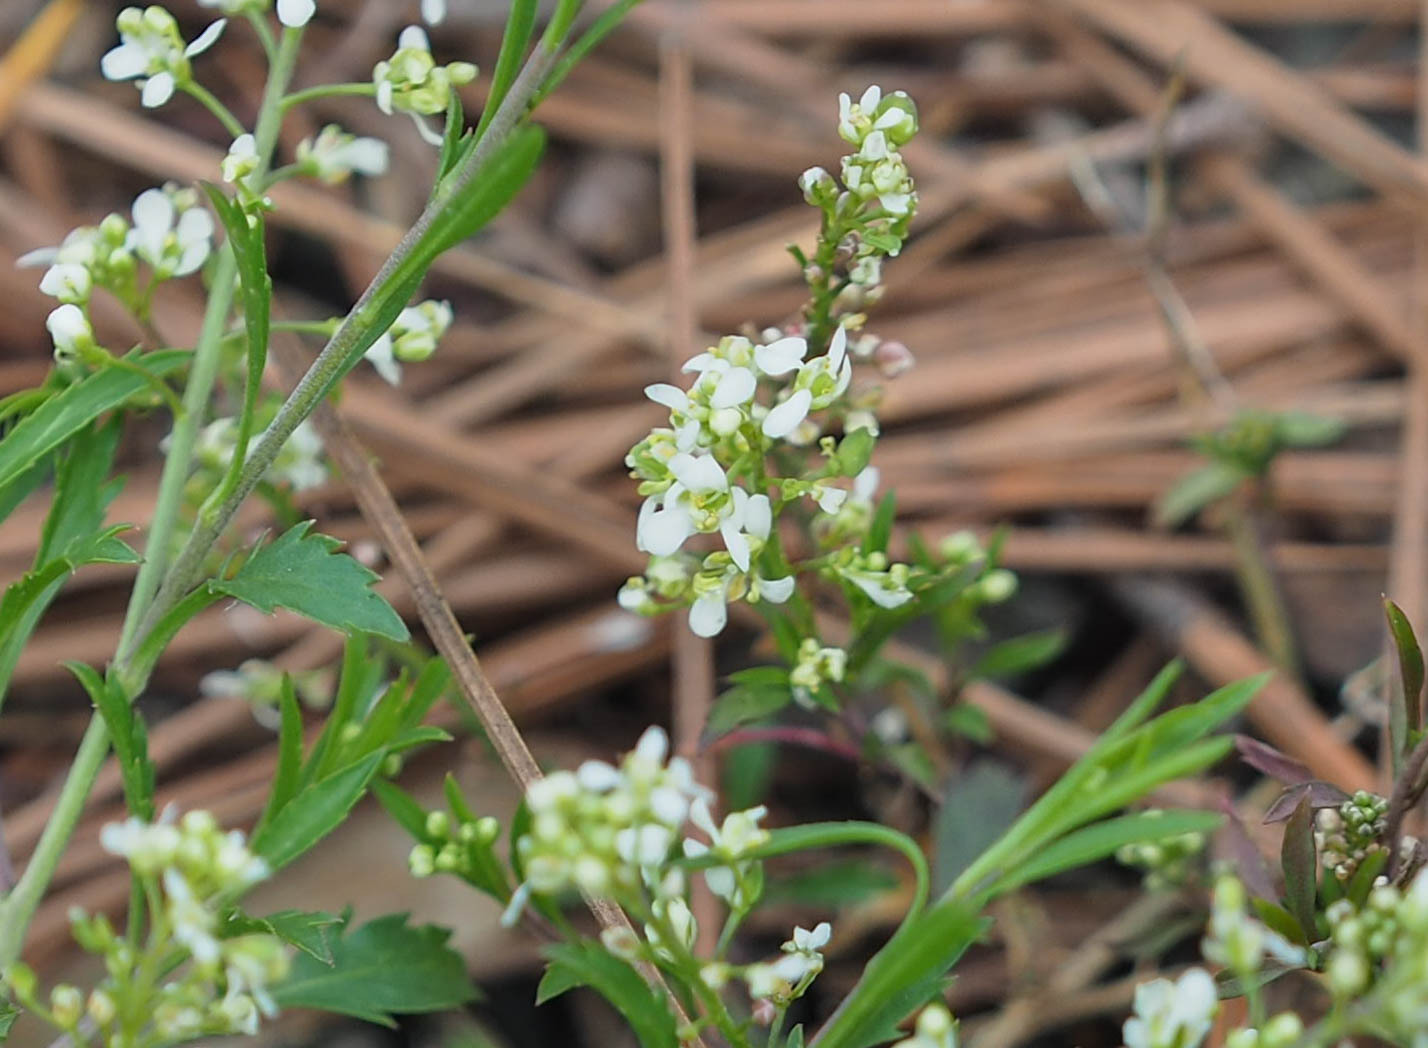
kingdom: Plantae
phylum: Tracheophyta
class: Magnoliopsida
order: Brassicales
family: Brassicaceae
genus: Lepidium
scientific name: Lepidium virginicum
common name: Least pepperwort
